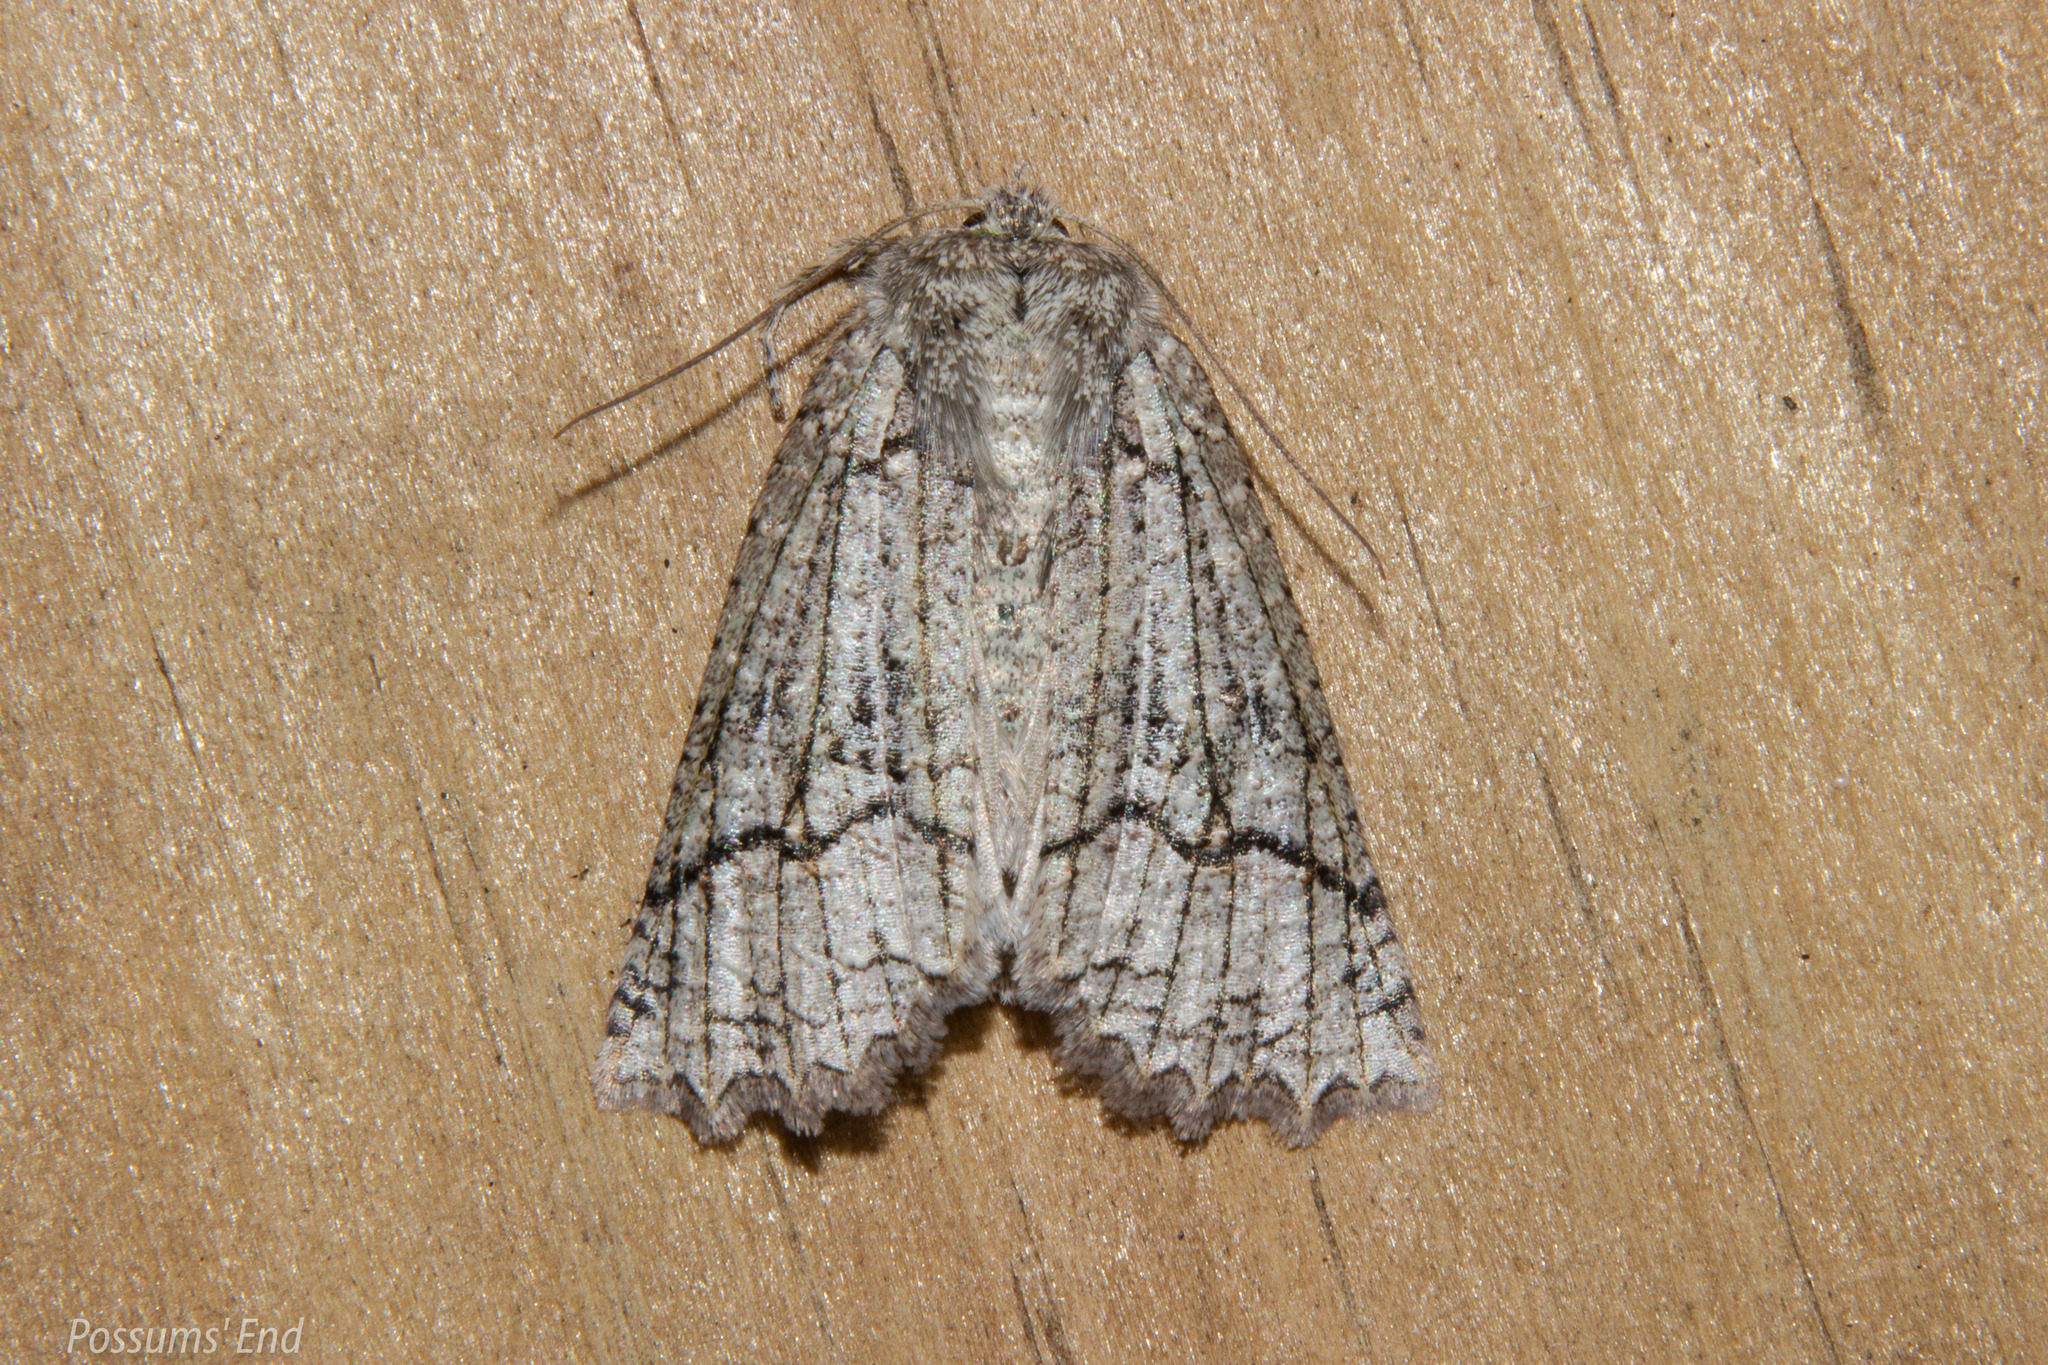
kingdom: Animalia
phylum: Arthropoda
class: Insecta
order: Lepidoptera
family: Geometridae
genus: Declana
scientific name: Declana floccosa
